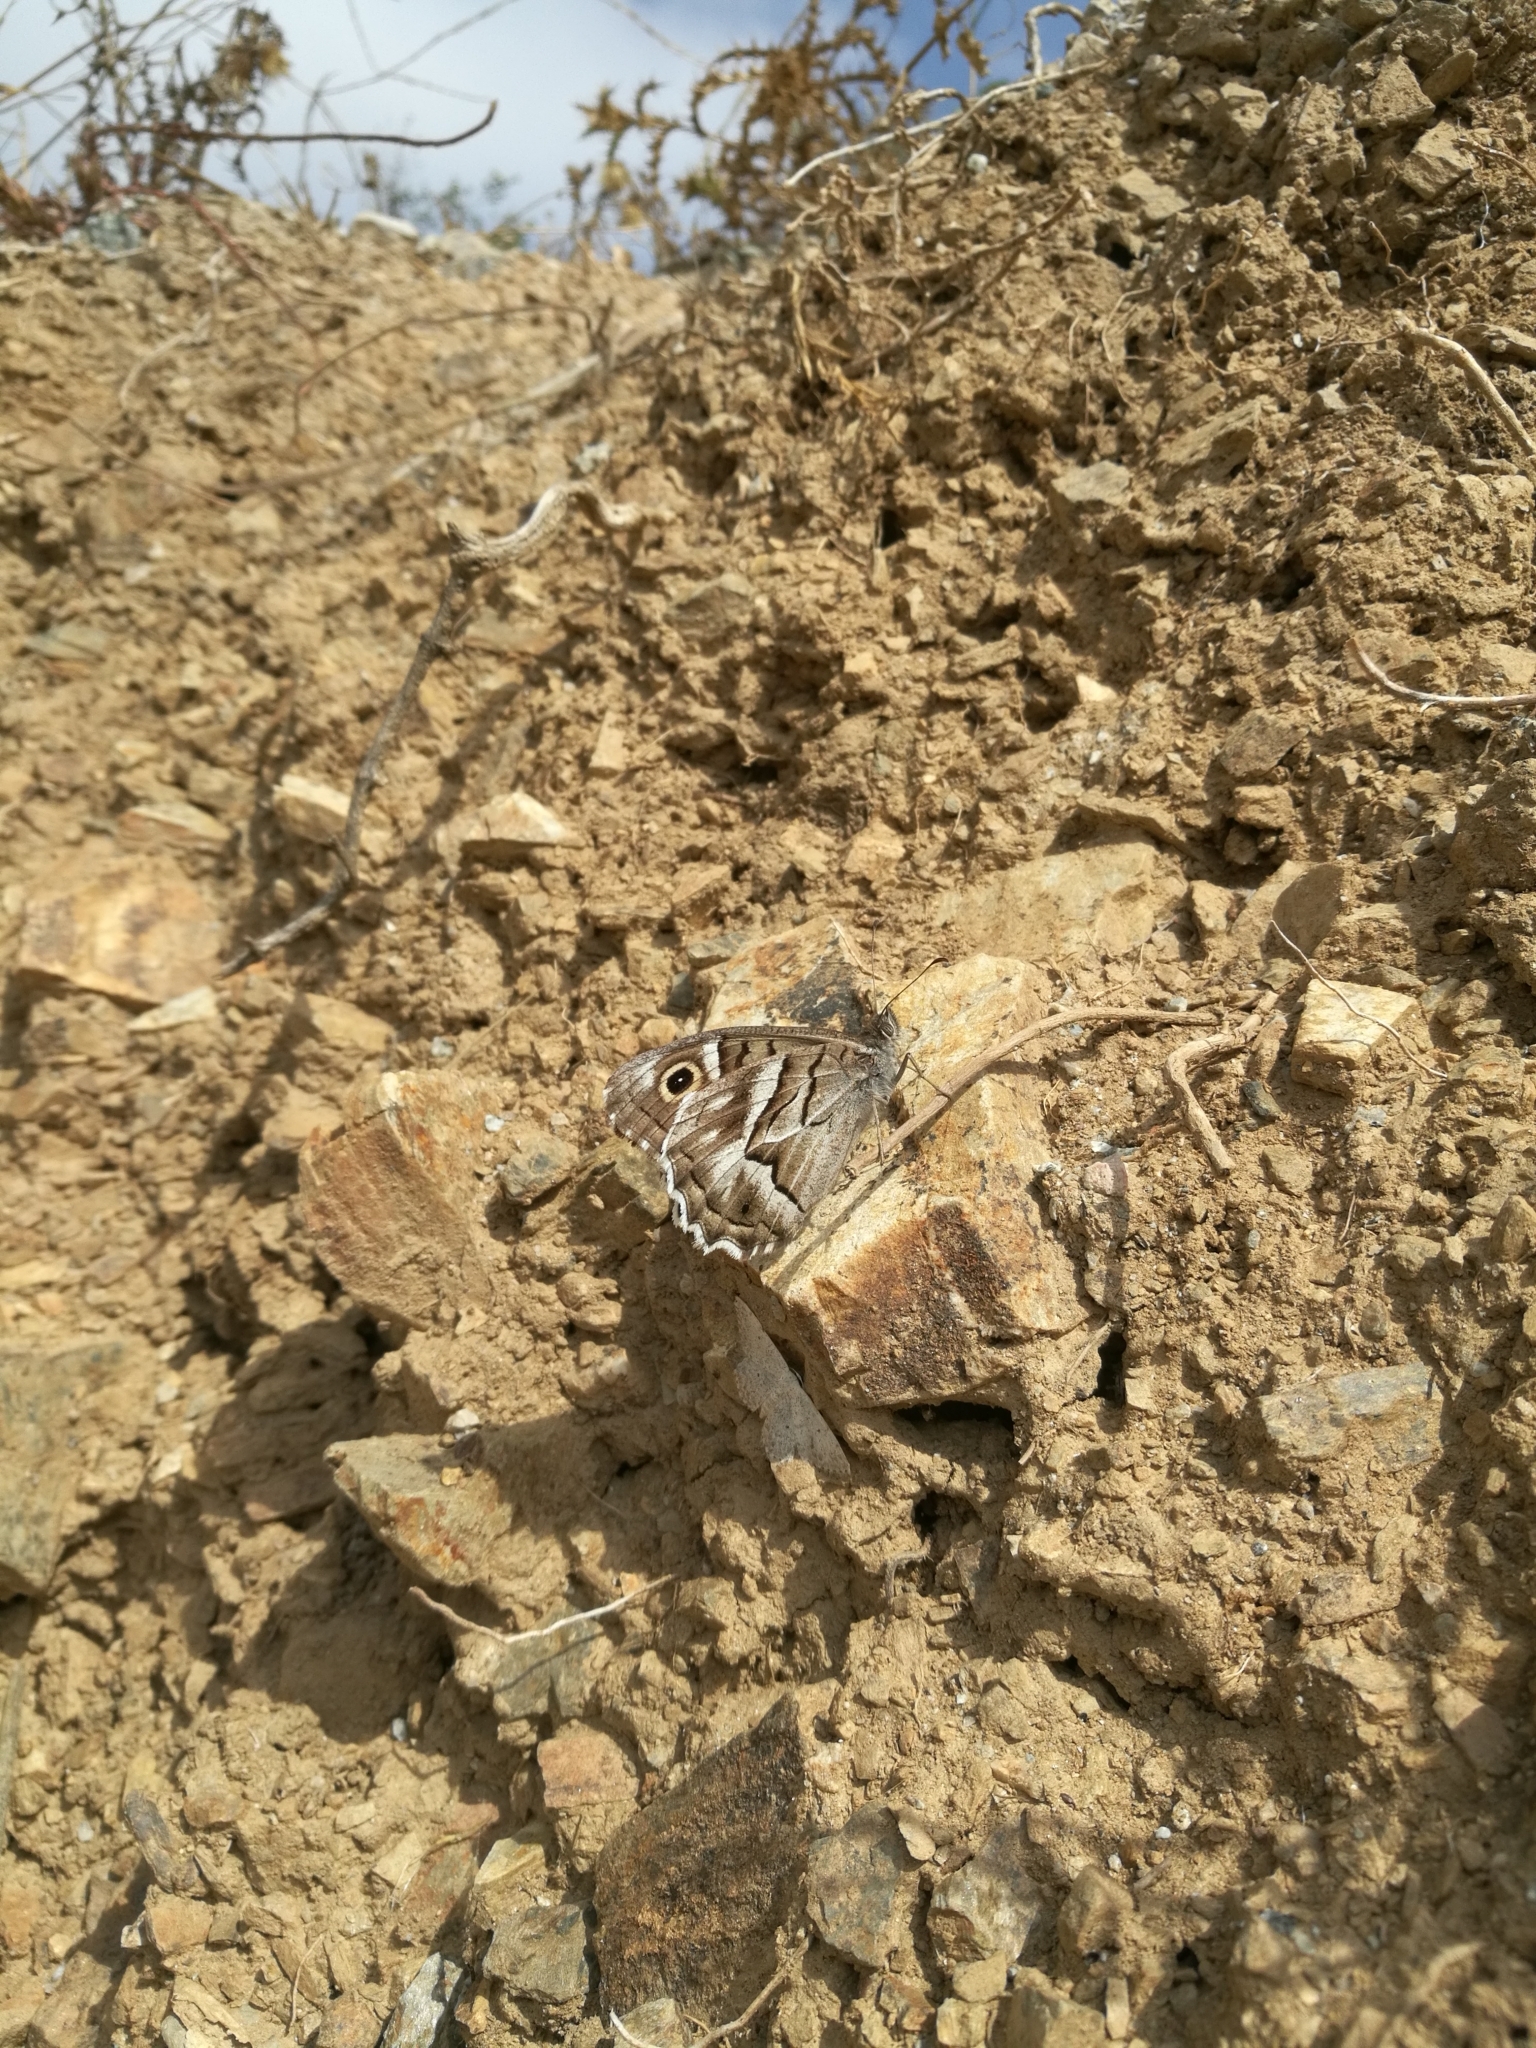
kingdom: Animalia
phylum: Arthropoda
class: Insecta
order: Lepidoptera
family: Nymphalidae
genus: Hipparchia
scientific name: Hipparchia fidia
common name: Striped grayling
